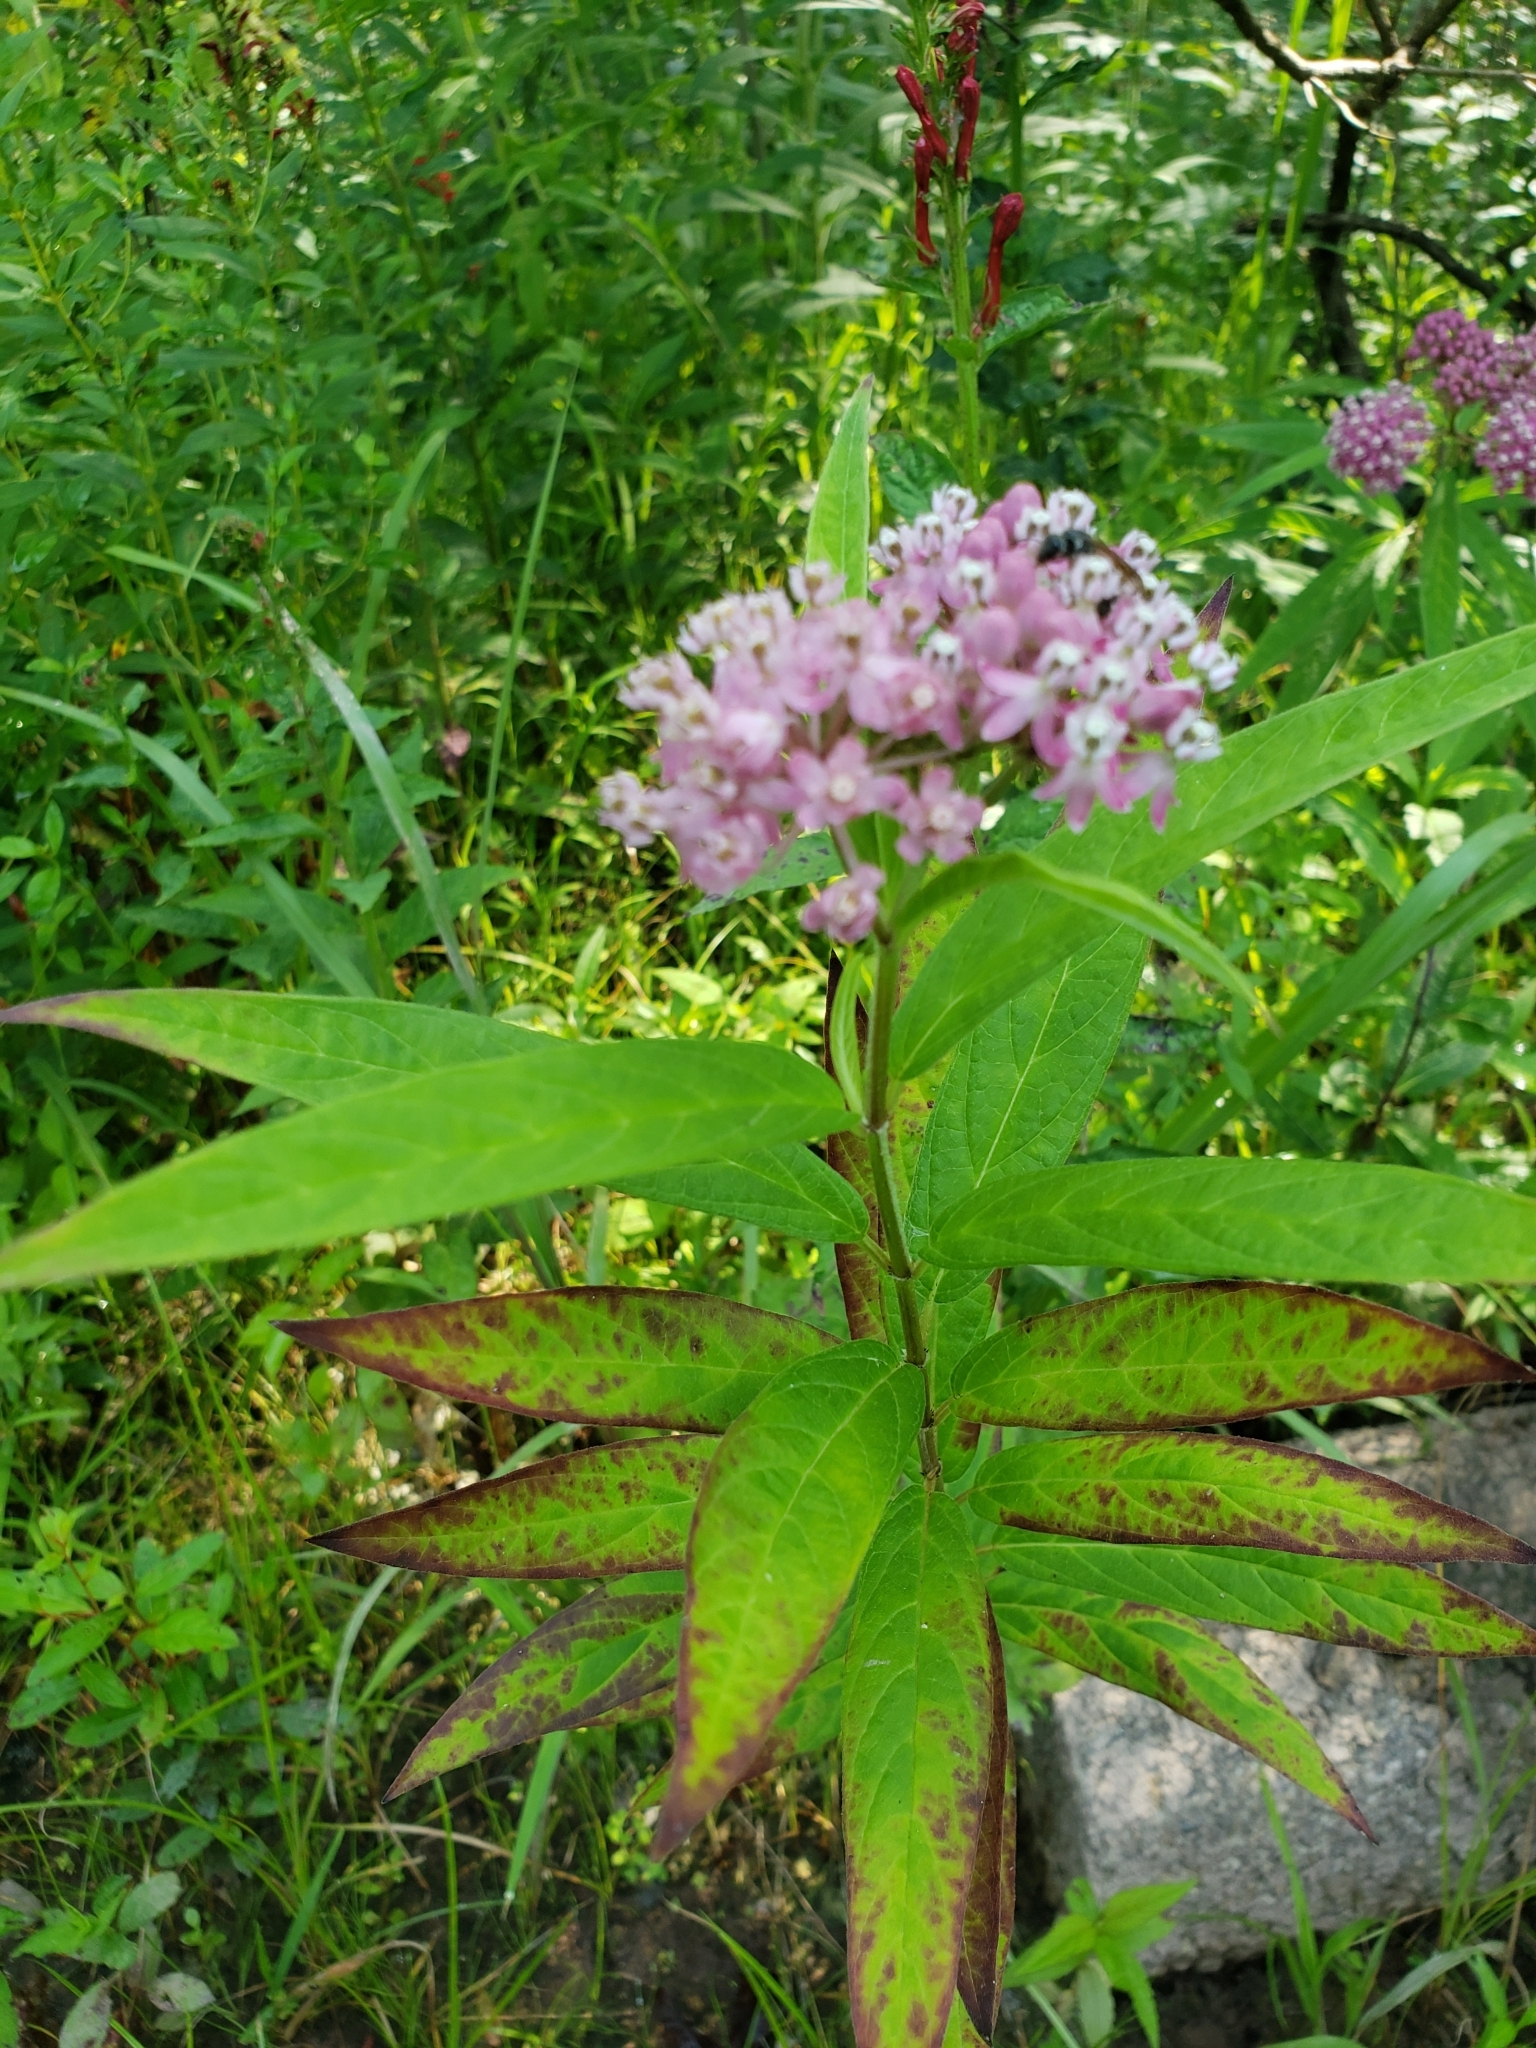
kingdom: Plantae
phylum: Tracheophyta
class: Magnoliopsida
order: Gentianales
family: Apocynaceae
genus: Asclepias
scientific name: Asclepias incarnata
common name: Swamp milkweed
